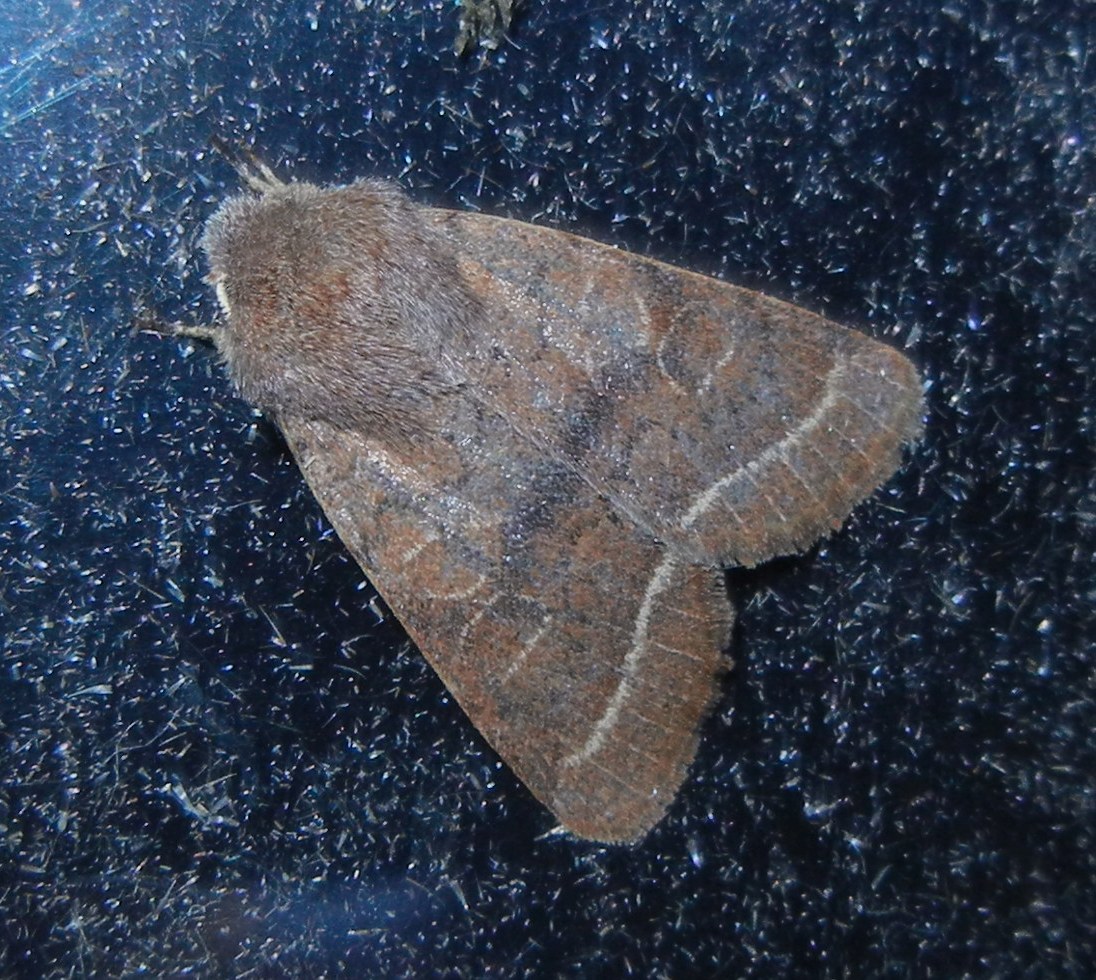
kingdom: Animalia
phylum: Arthropoda
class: Insecta
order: Lepidoptera
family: Noctuidae
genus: Orthosia
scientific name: Orthosia cerasi
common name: Common quaker
